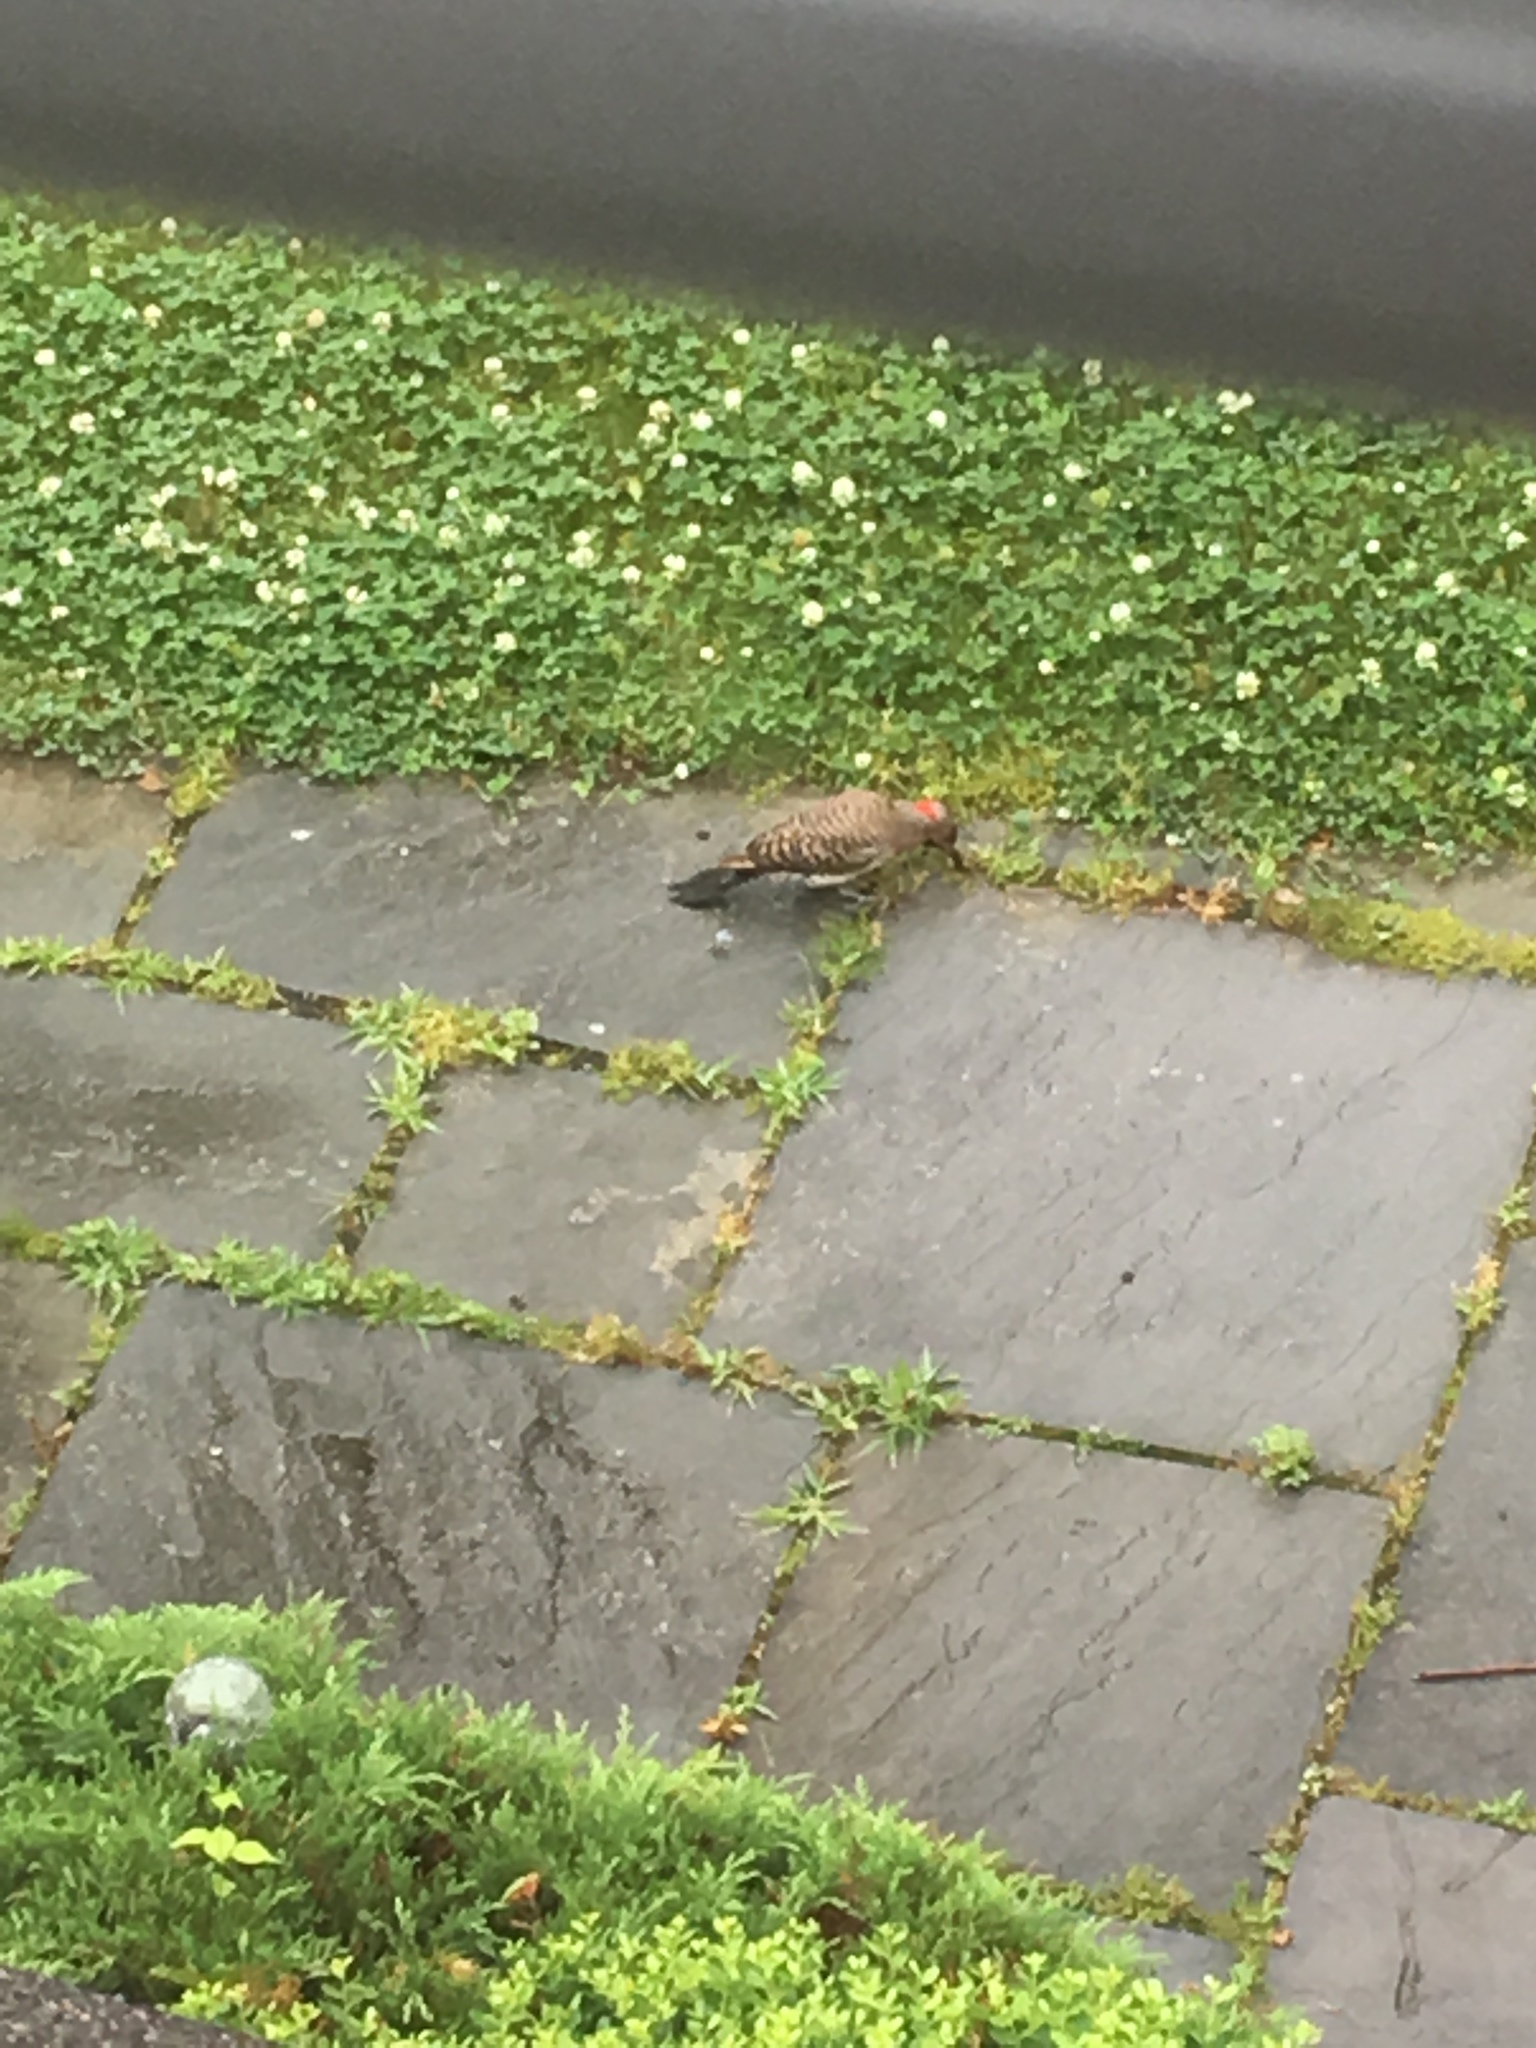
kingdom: Animalia
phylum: Chordata
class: Aves
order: Piciformes
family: Picidae
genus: Colaptes
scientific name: Colaptes auratus
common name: Northern flicker
